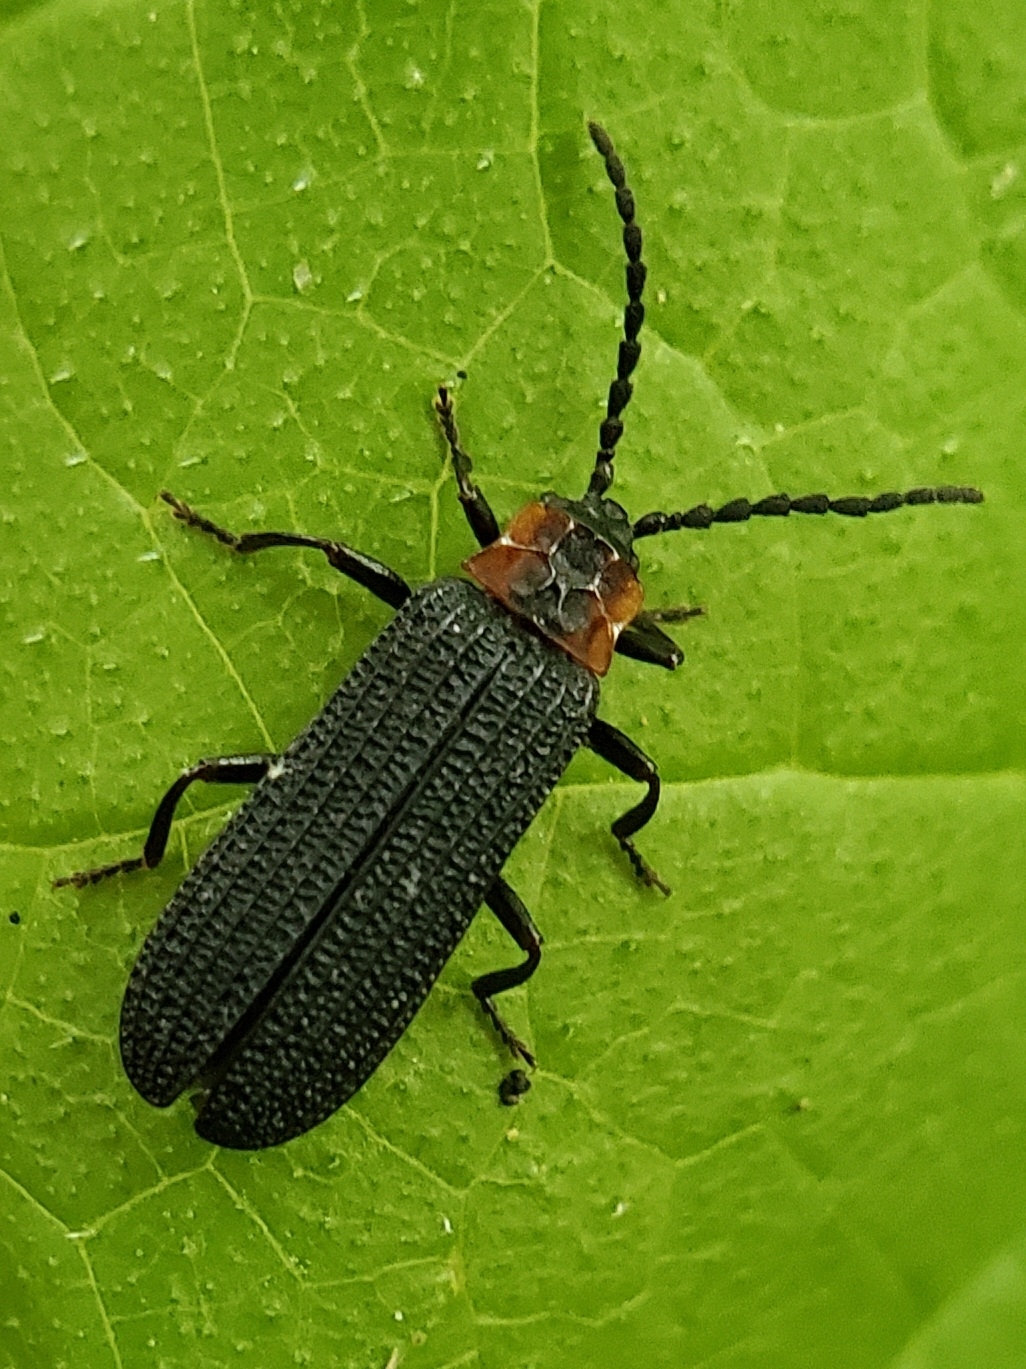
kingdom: Animalia
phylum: Arthropoda
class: Insecta
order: Coleoptera
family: Lycidae
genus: Erotides
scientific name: Erotides sculptilis
